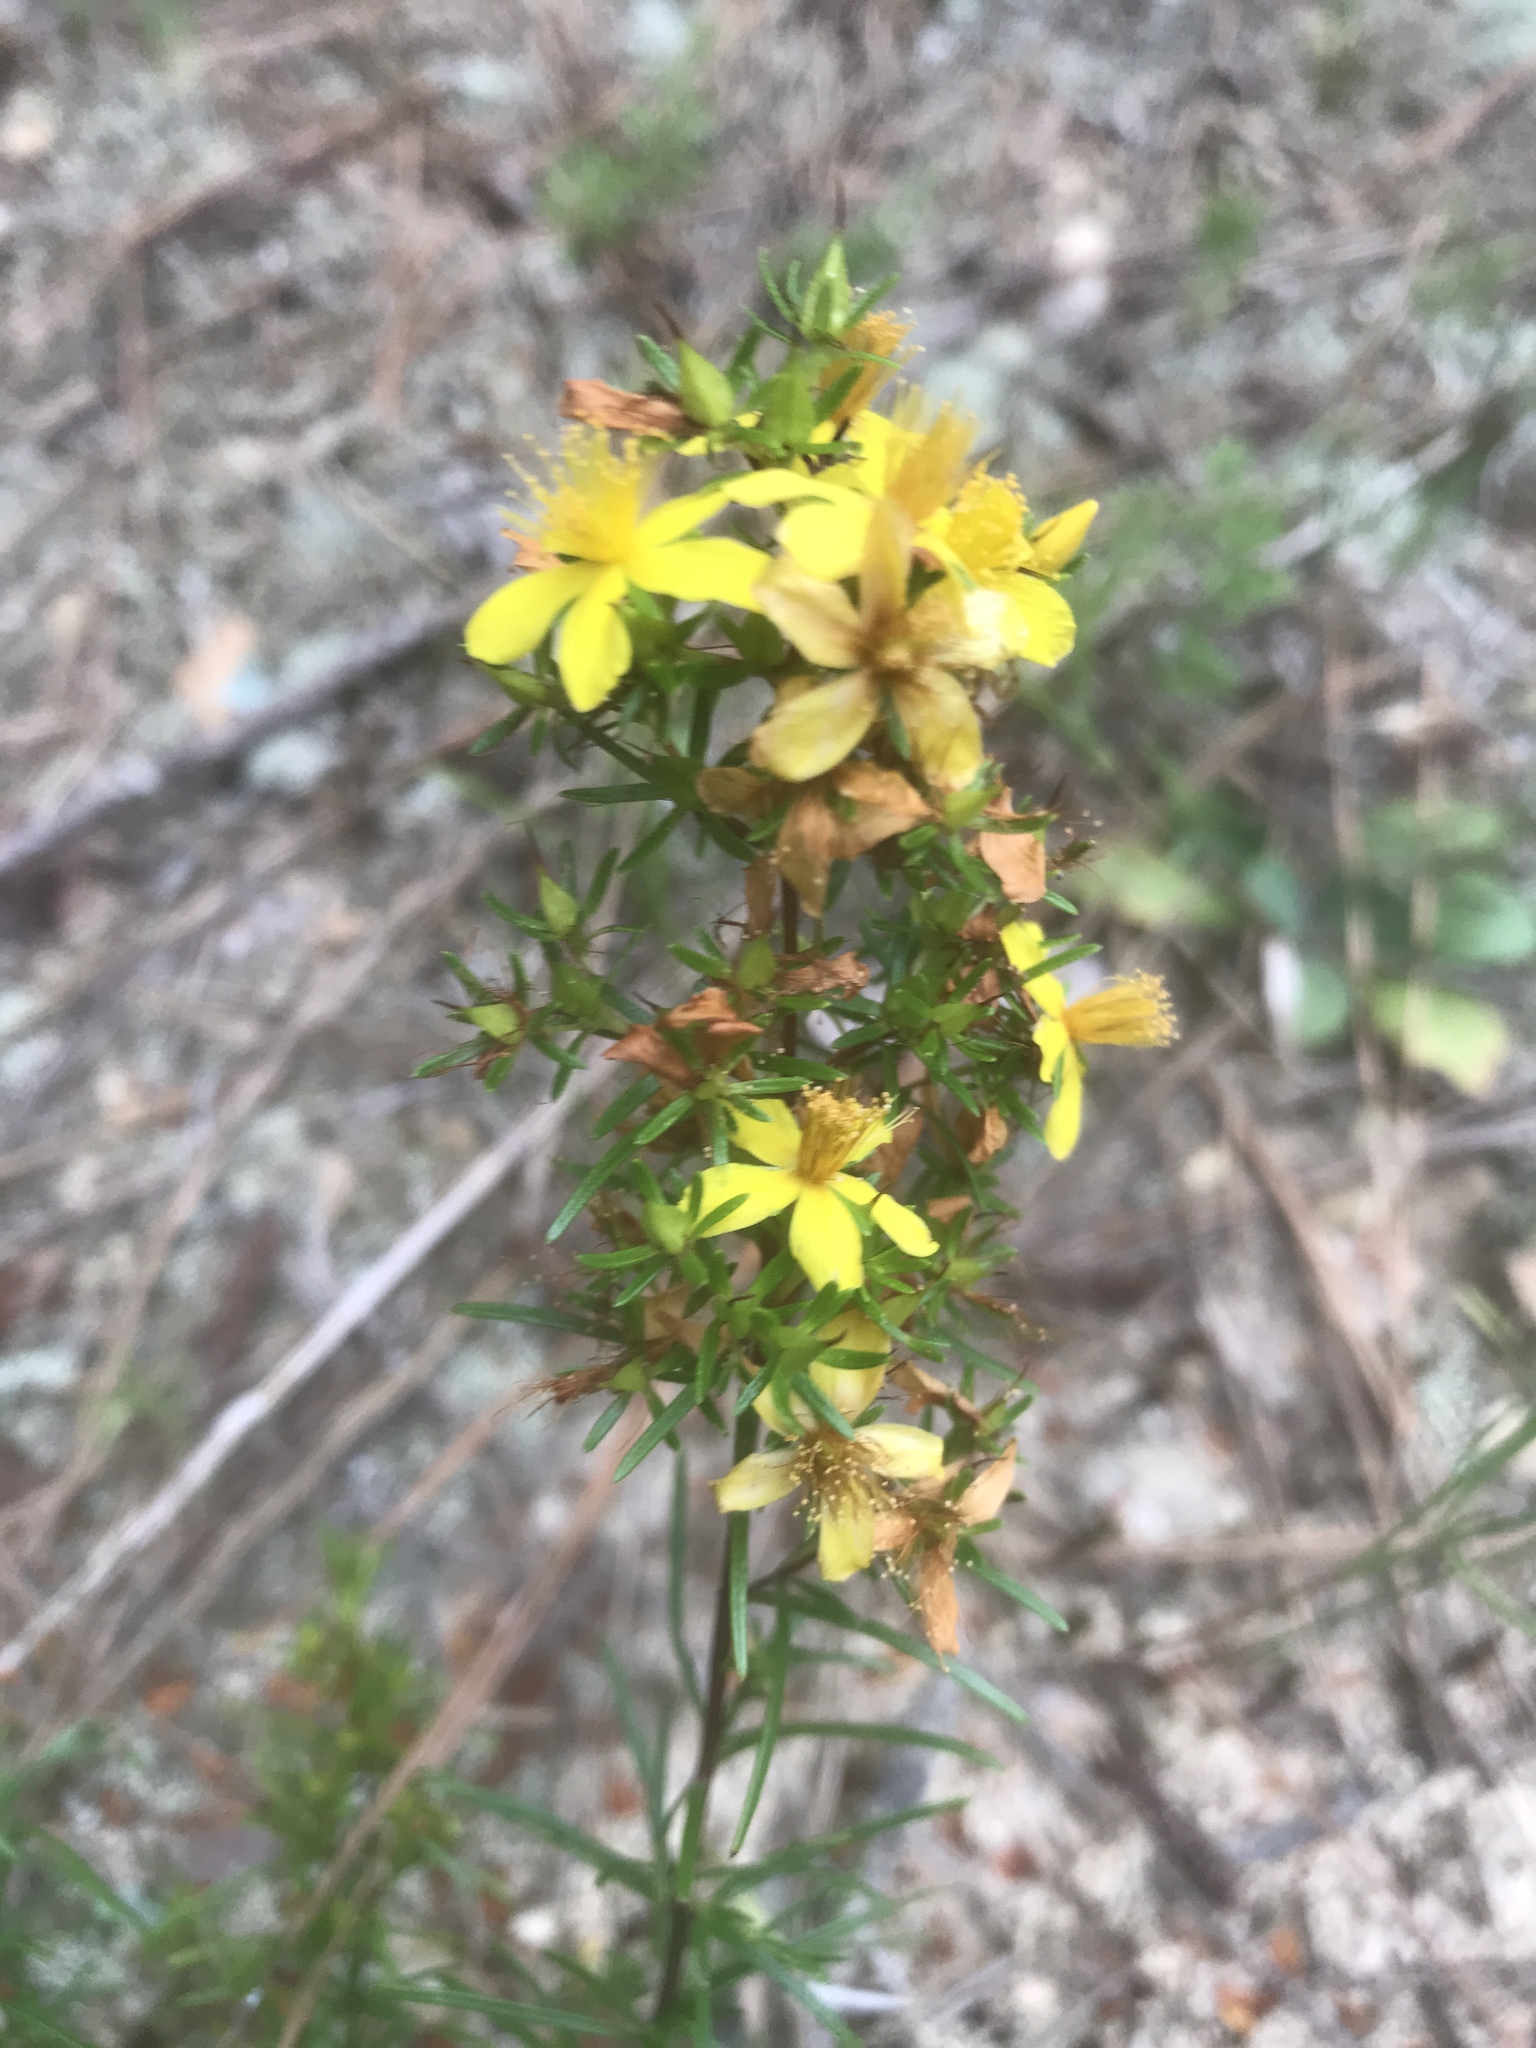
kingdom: Plantae
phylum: Tracheophyta
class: Magnoliopsida
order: Malpighiales
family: Hypericaceae
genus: Hypericum
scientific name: Hypericum lloydii
